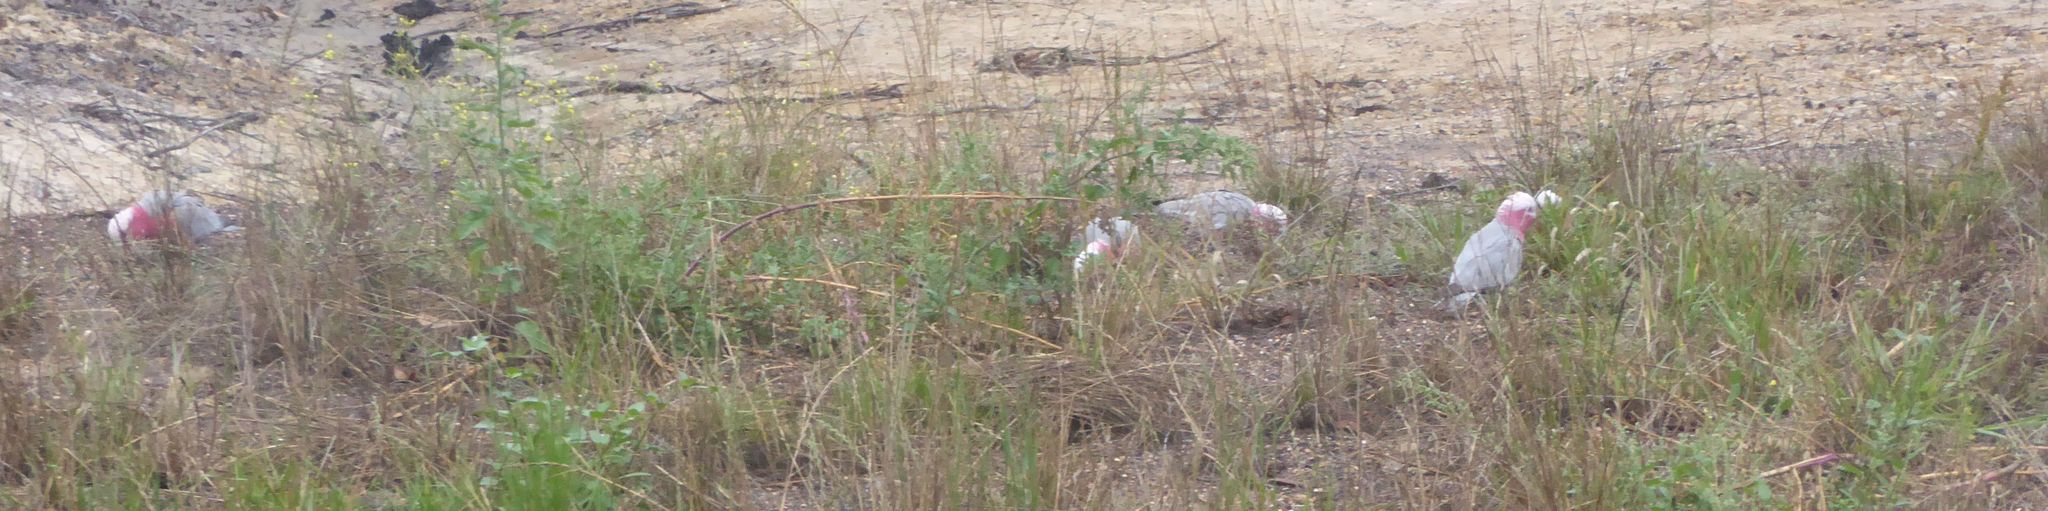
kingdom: Animalia
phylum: Chordata
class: Aves
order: Psittaciformes
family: Psittacidae
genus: Eolophus
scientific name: Eolophus roseicapilla
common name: Galah
